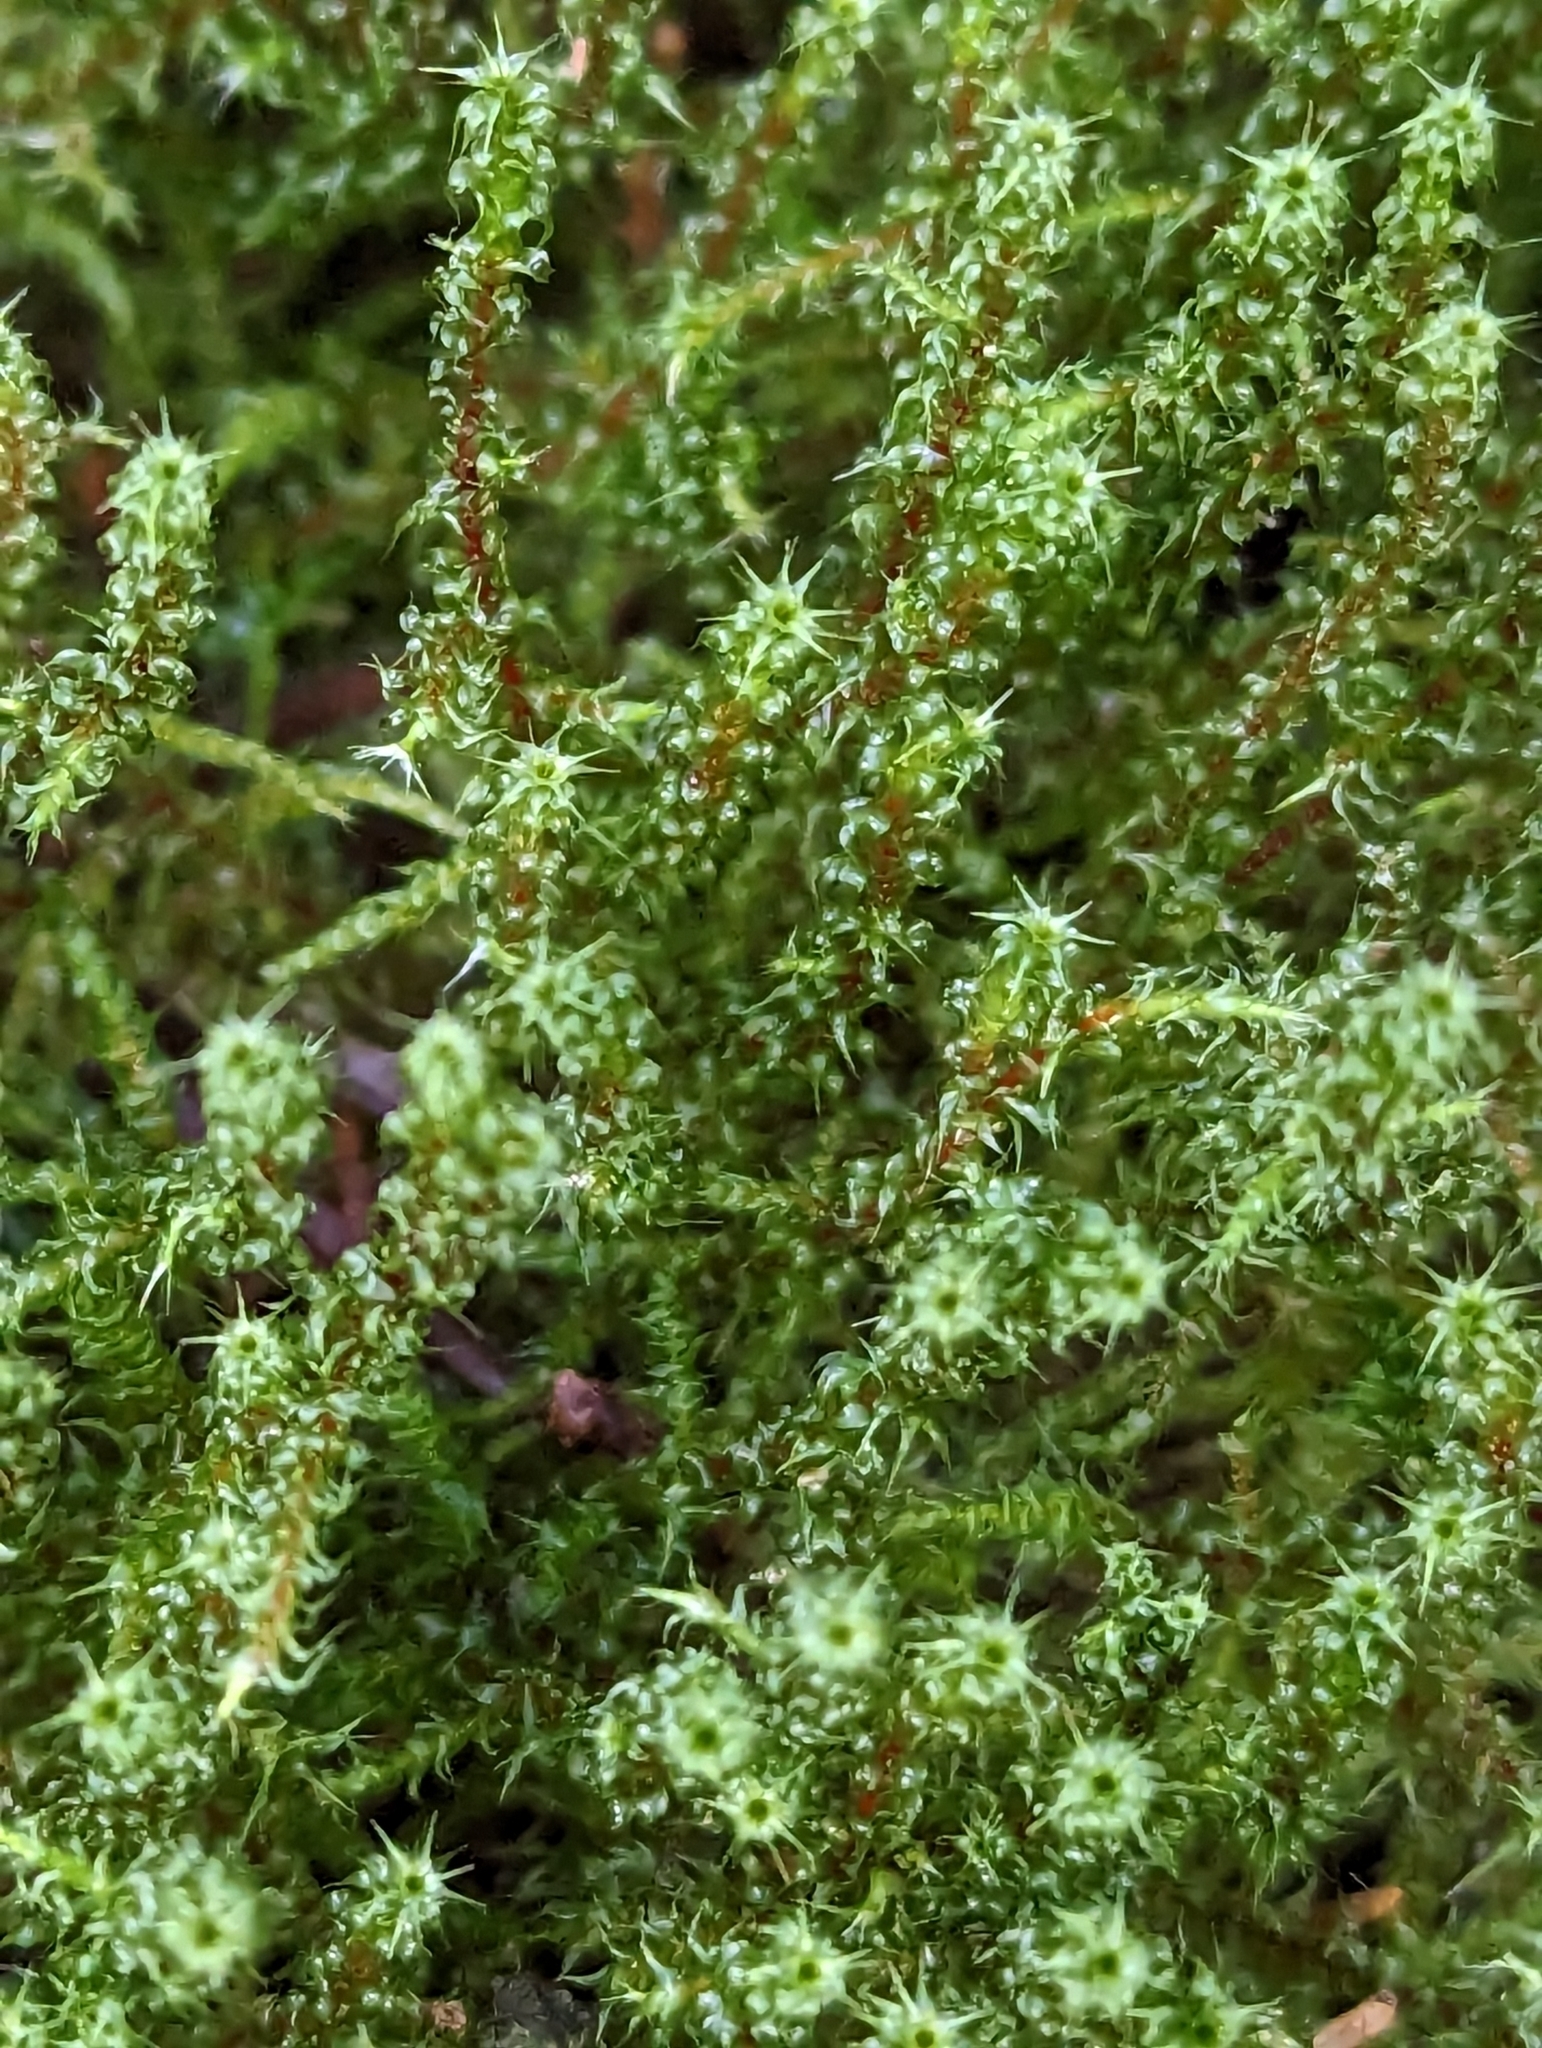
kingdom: Plantae
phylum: Bryophyta
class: Bryopsida
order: Hypnales
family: Hylocomiaceae
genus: Rhytidiadelphus
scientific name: Rhytidiadelphus squarrosus
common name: Springy turf-moss
